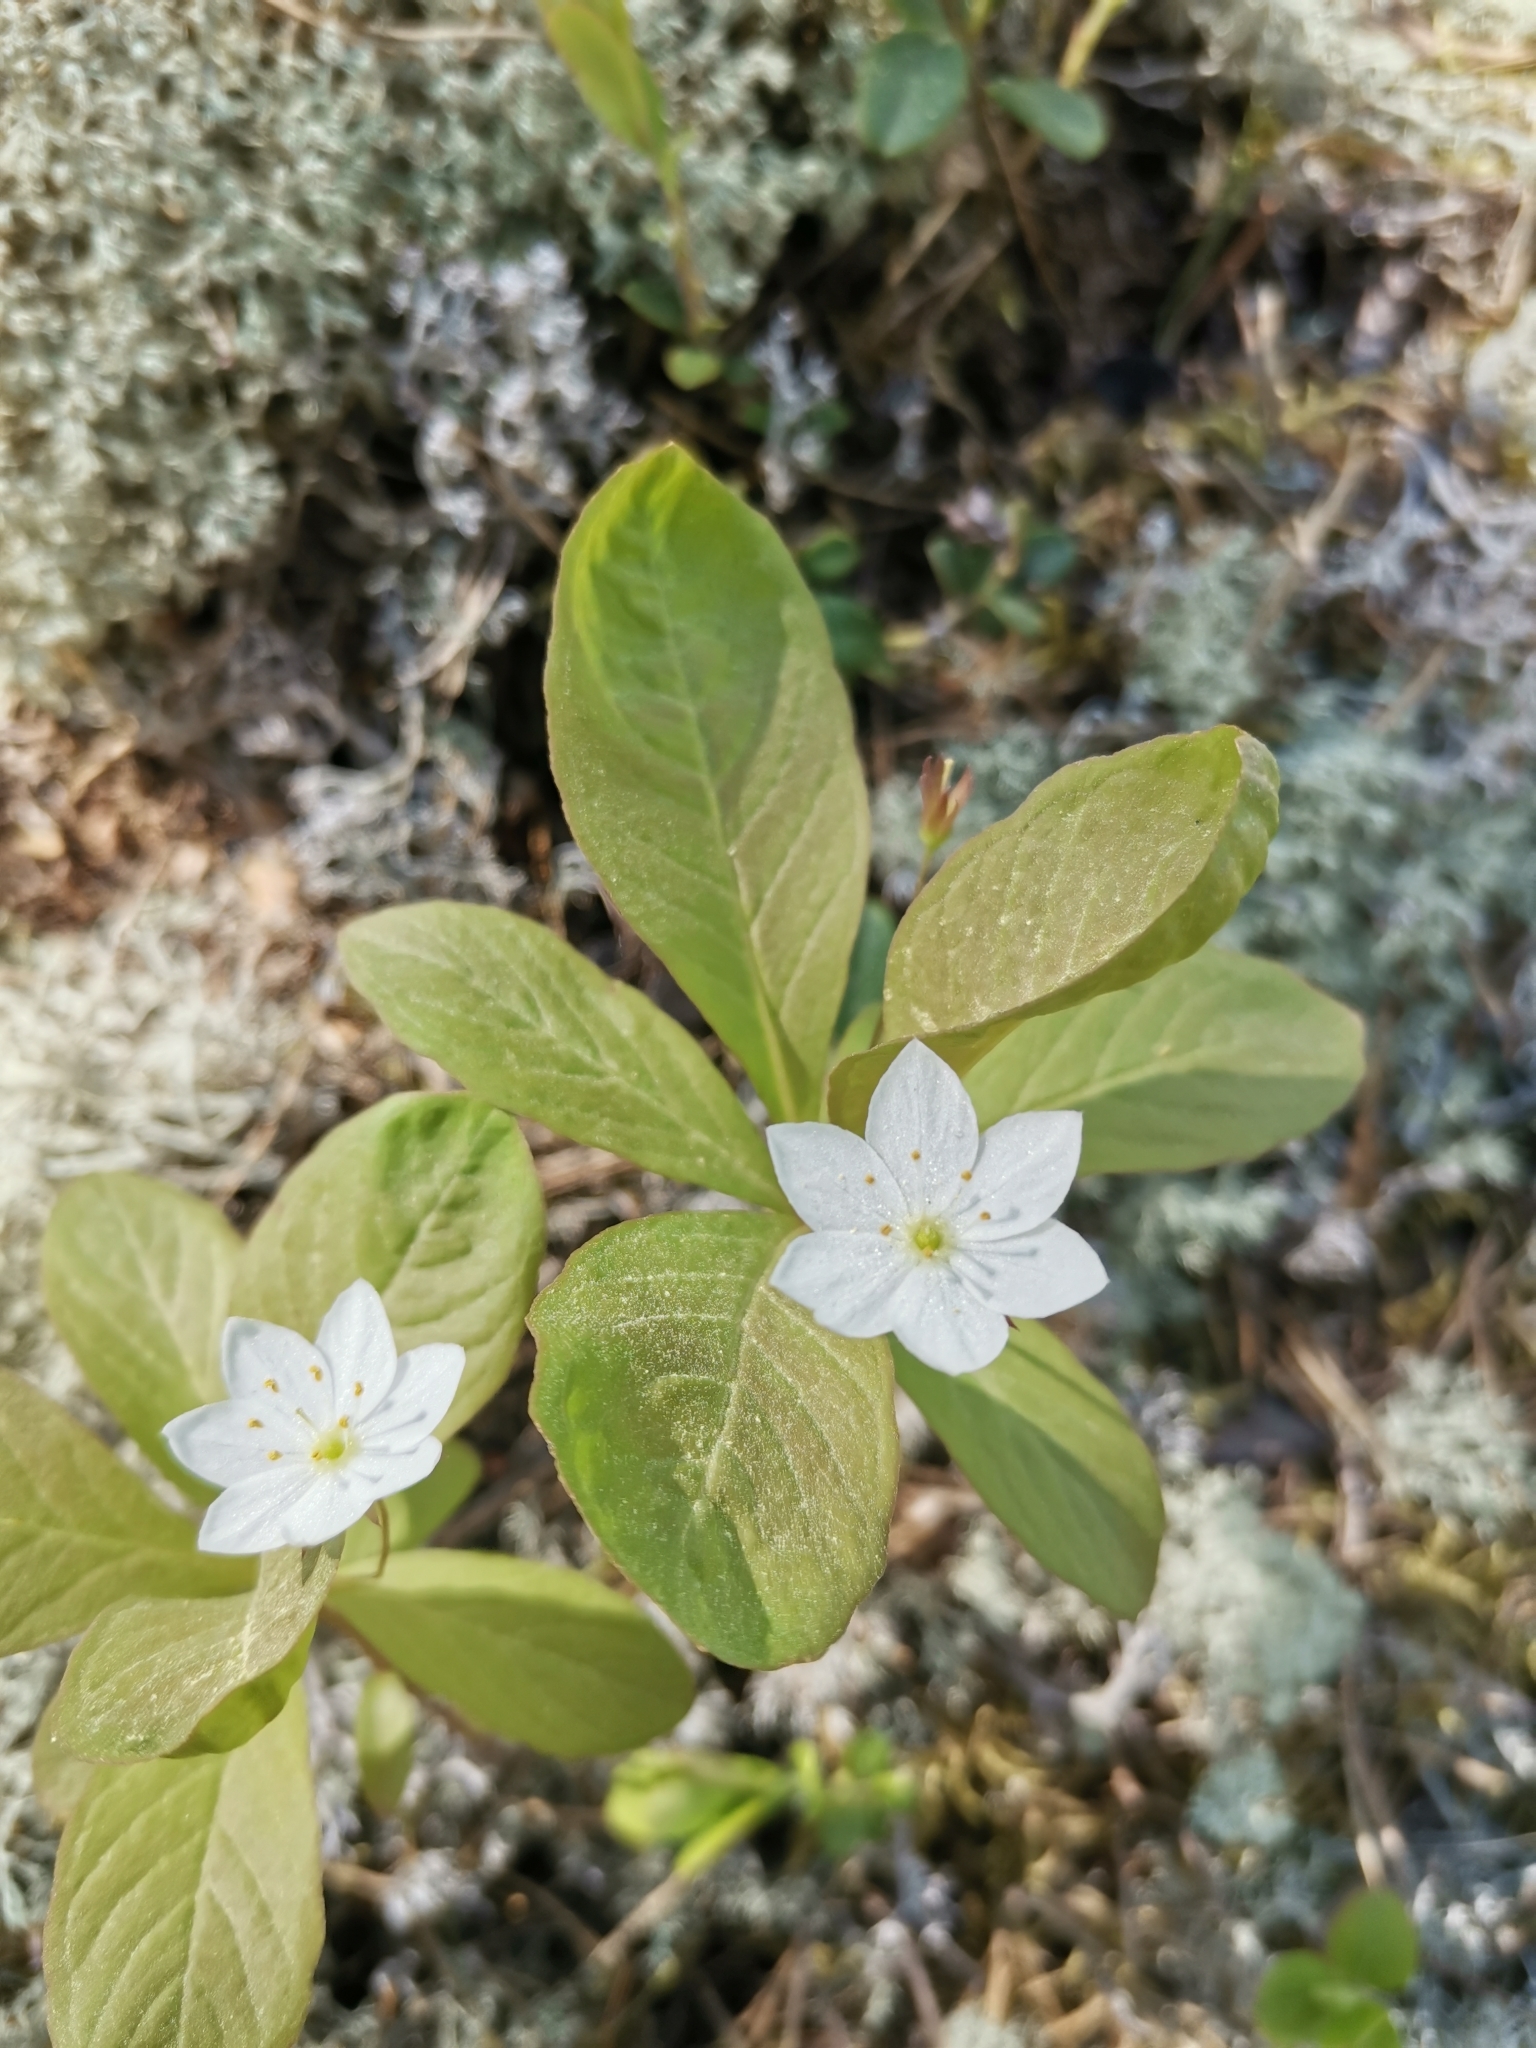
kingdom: Plantae
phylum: Tracheophyta
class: Magnoliopsida
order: Ericales
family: Primulaceae
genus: Lysimachia
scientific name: Lysimachia europaea
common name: Arctic starflower
